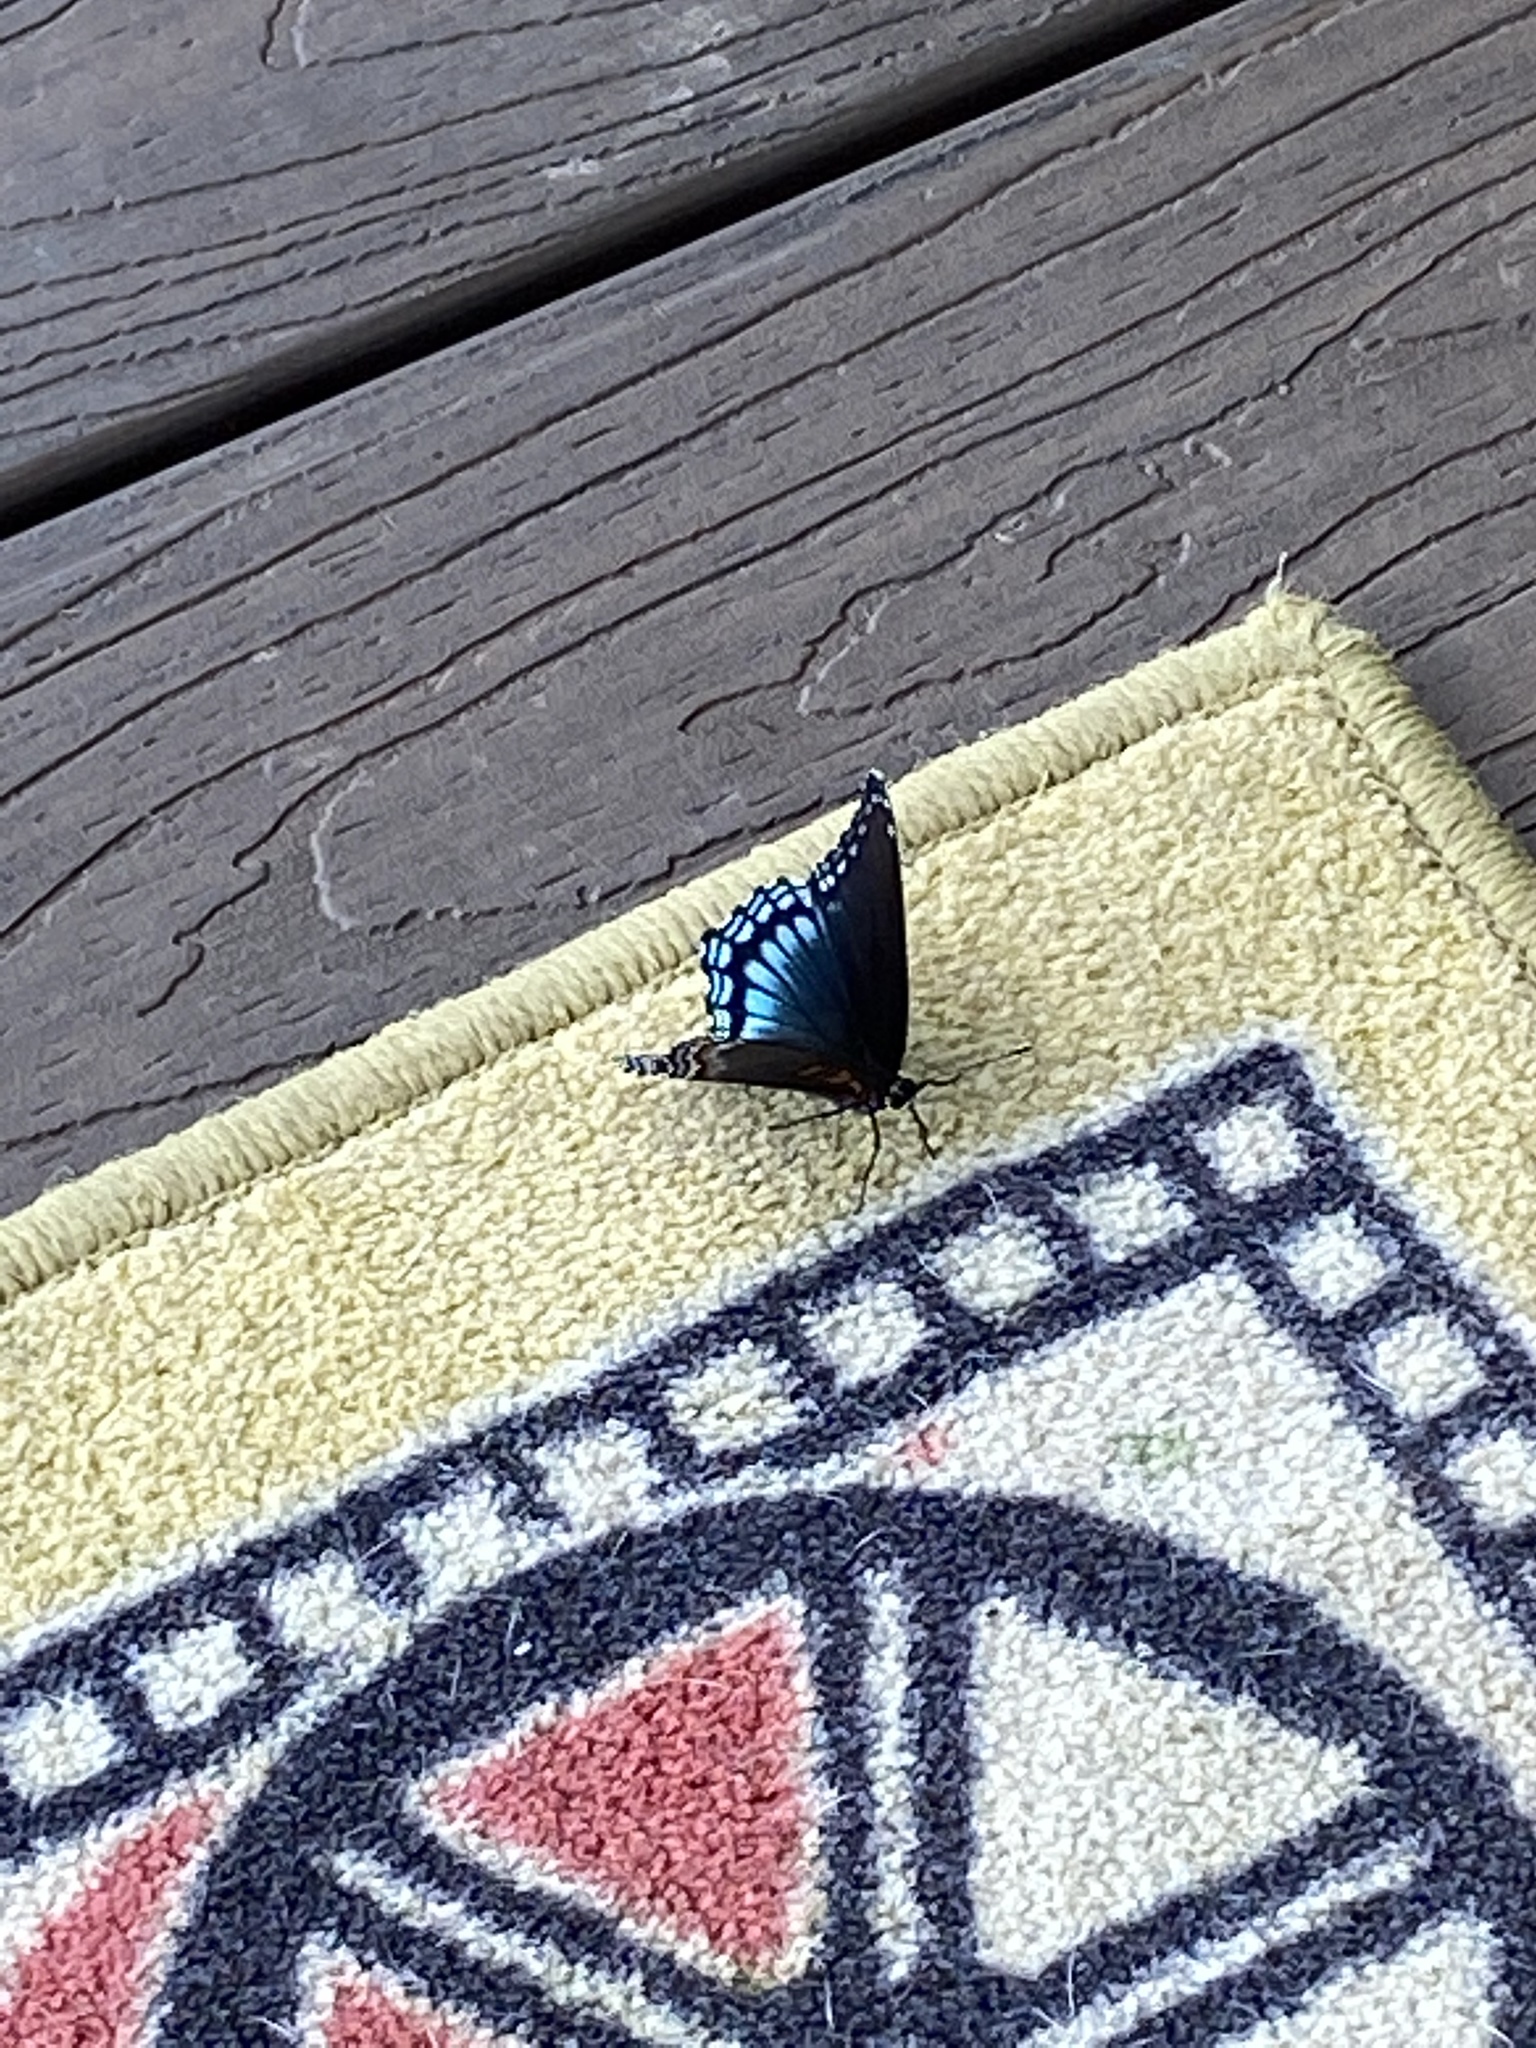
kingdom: Animalia
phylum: Arthropoda
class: Insecta
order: Lepidoptera
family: Nymphalidae
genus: Limenitis
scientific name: Limenitis astyanax
